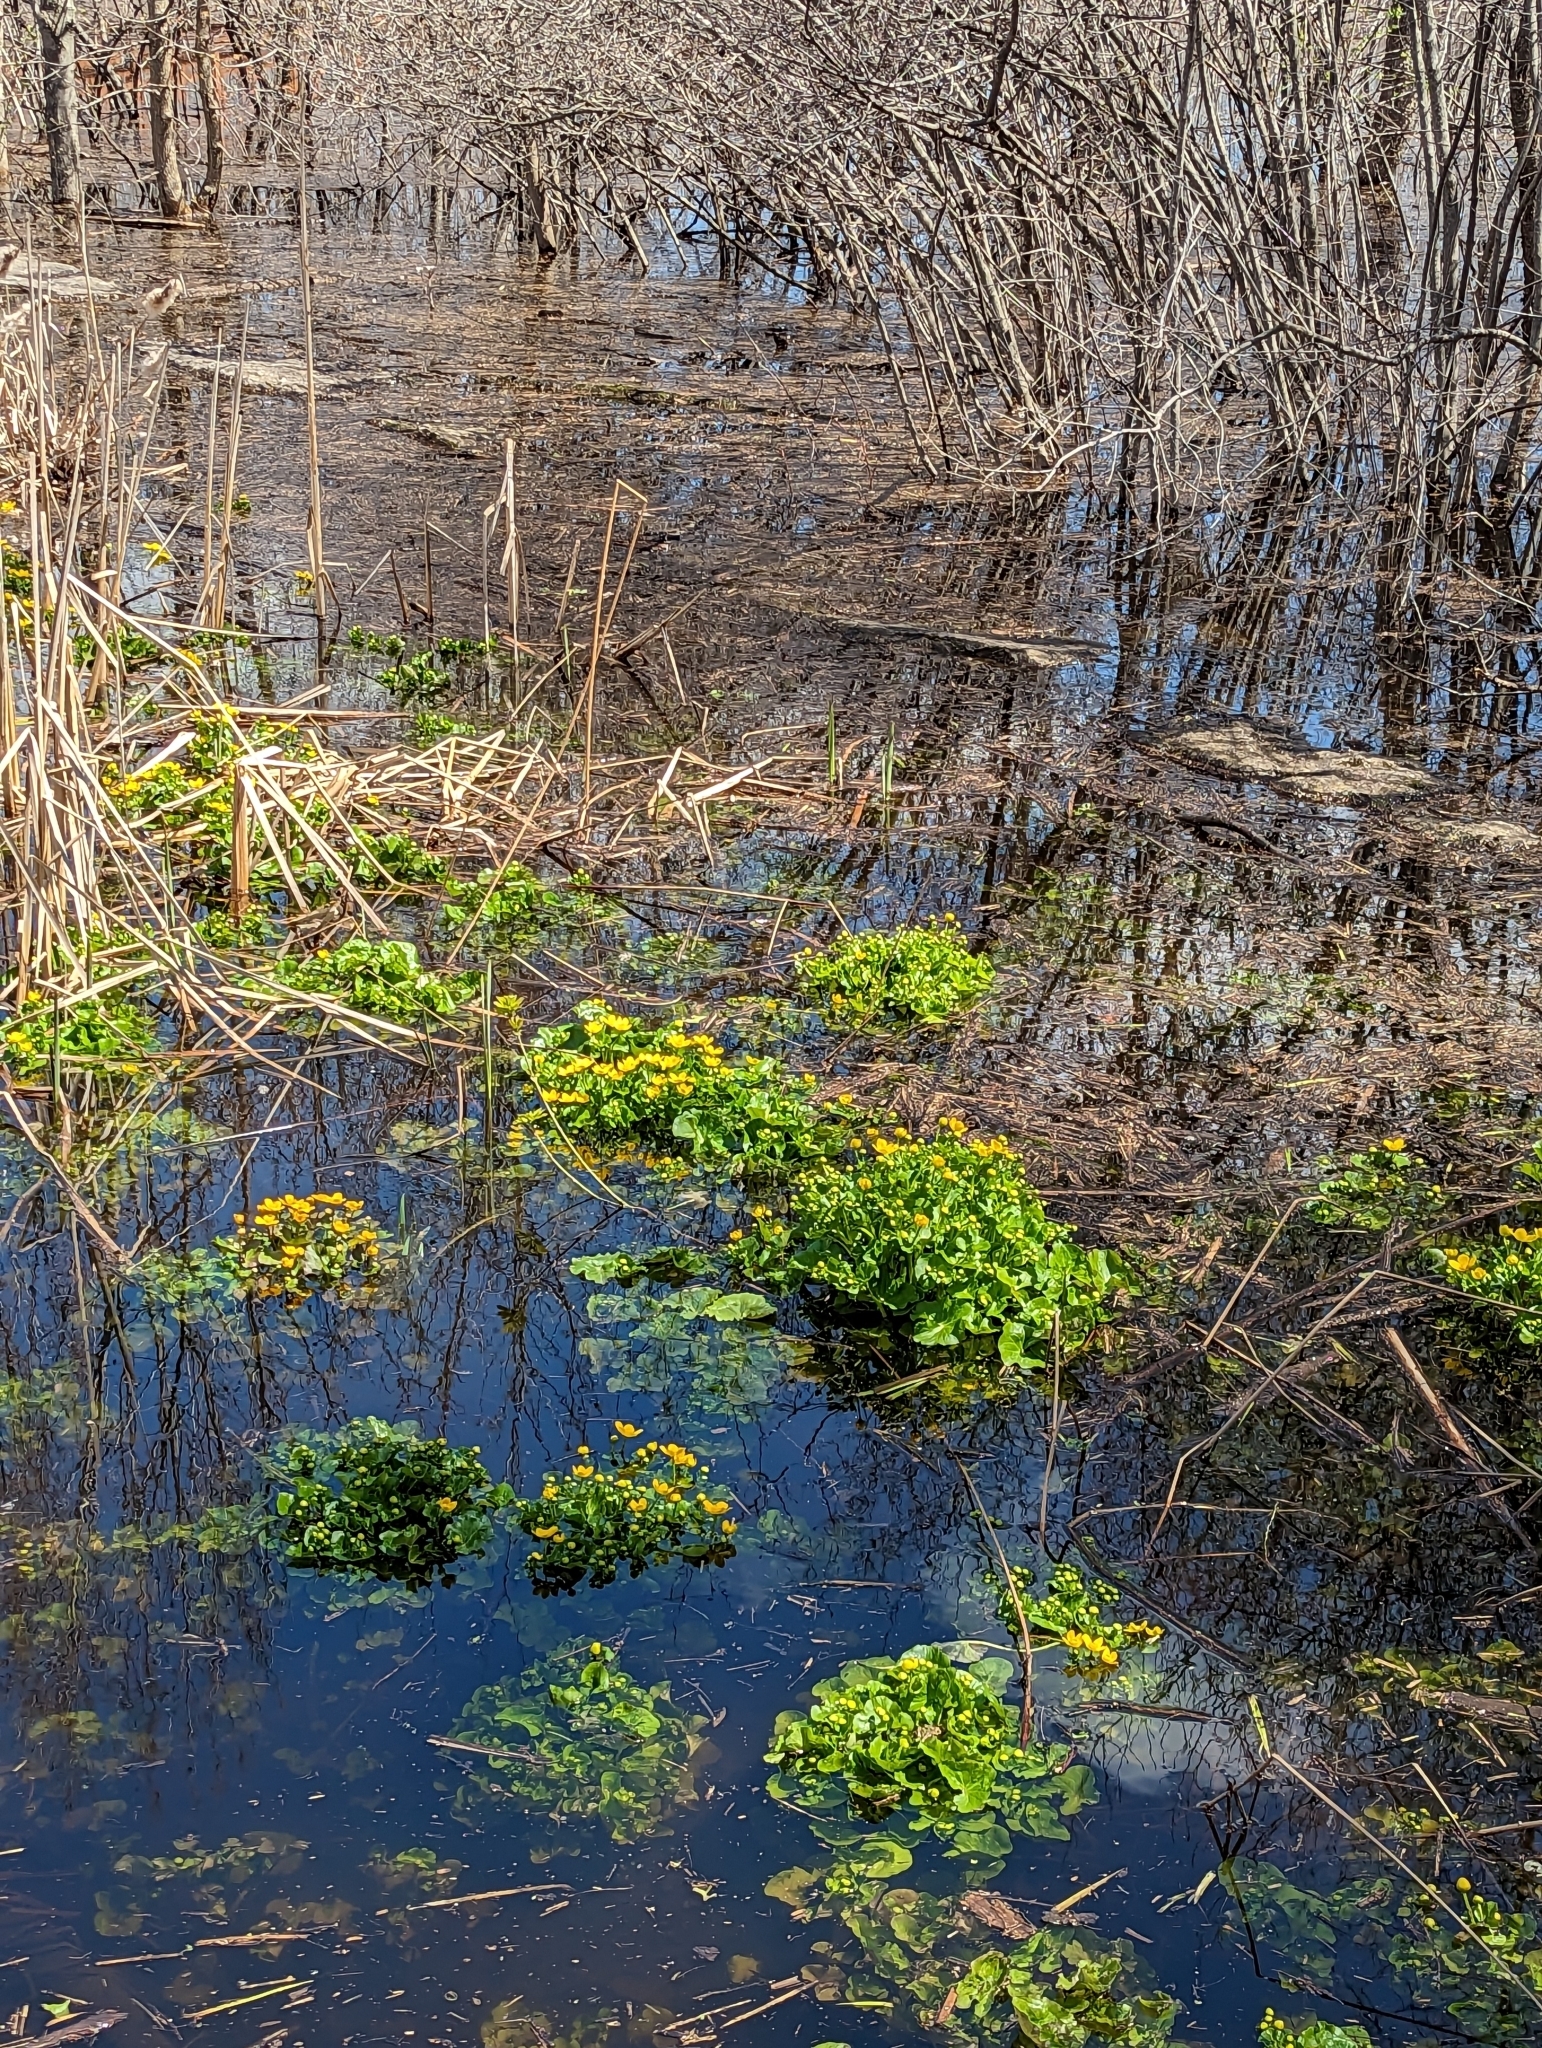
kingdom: Plantae
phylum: Tracheophyta
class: Magnoliopsida
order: Ranunculales
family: Ranunculaceae
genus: Caltha
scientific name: Caltha palustris
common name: Marsh marigold
